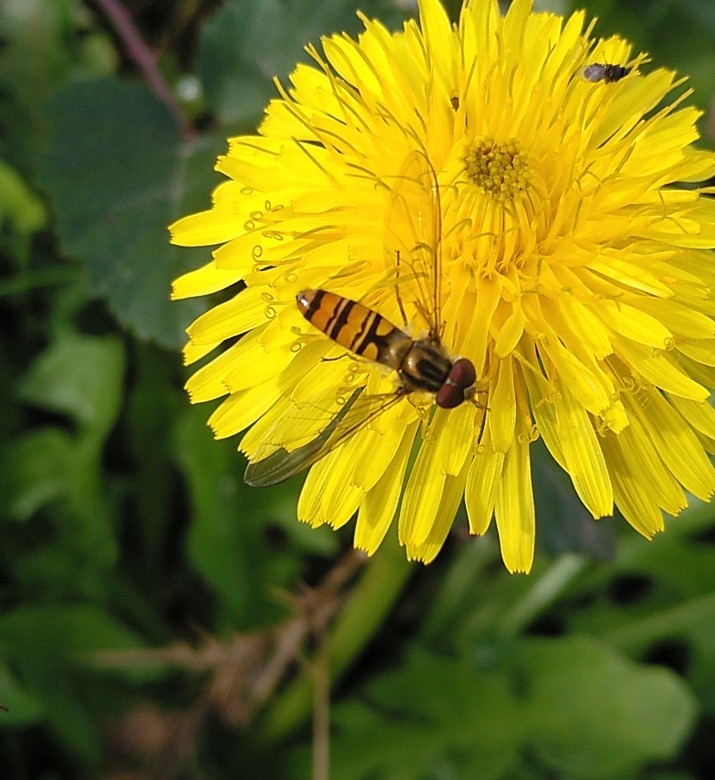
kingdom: Animalia
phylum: Arthropoda
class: Insecta
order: Diptera
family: Syrphidae
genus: Episyrphus
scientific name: Episyrphus balteatus
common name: Marmalade hoverfly
